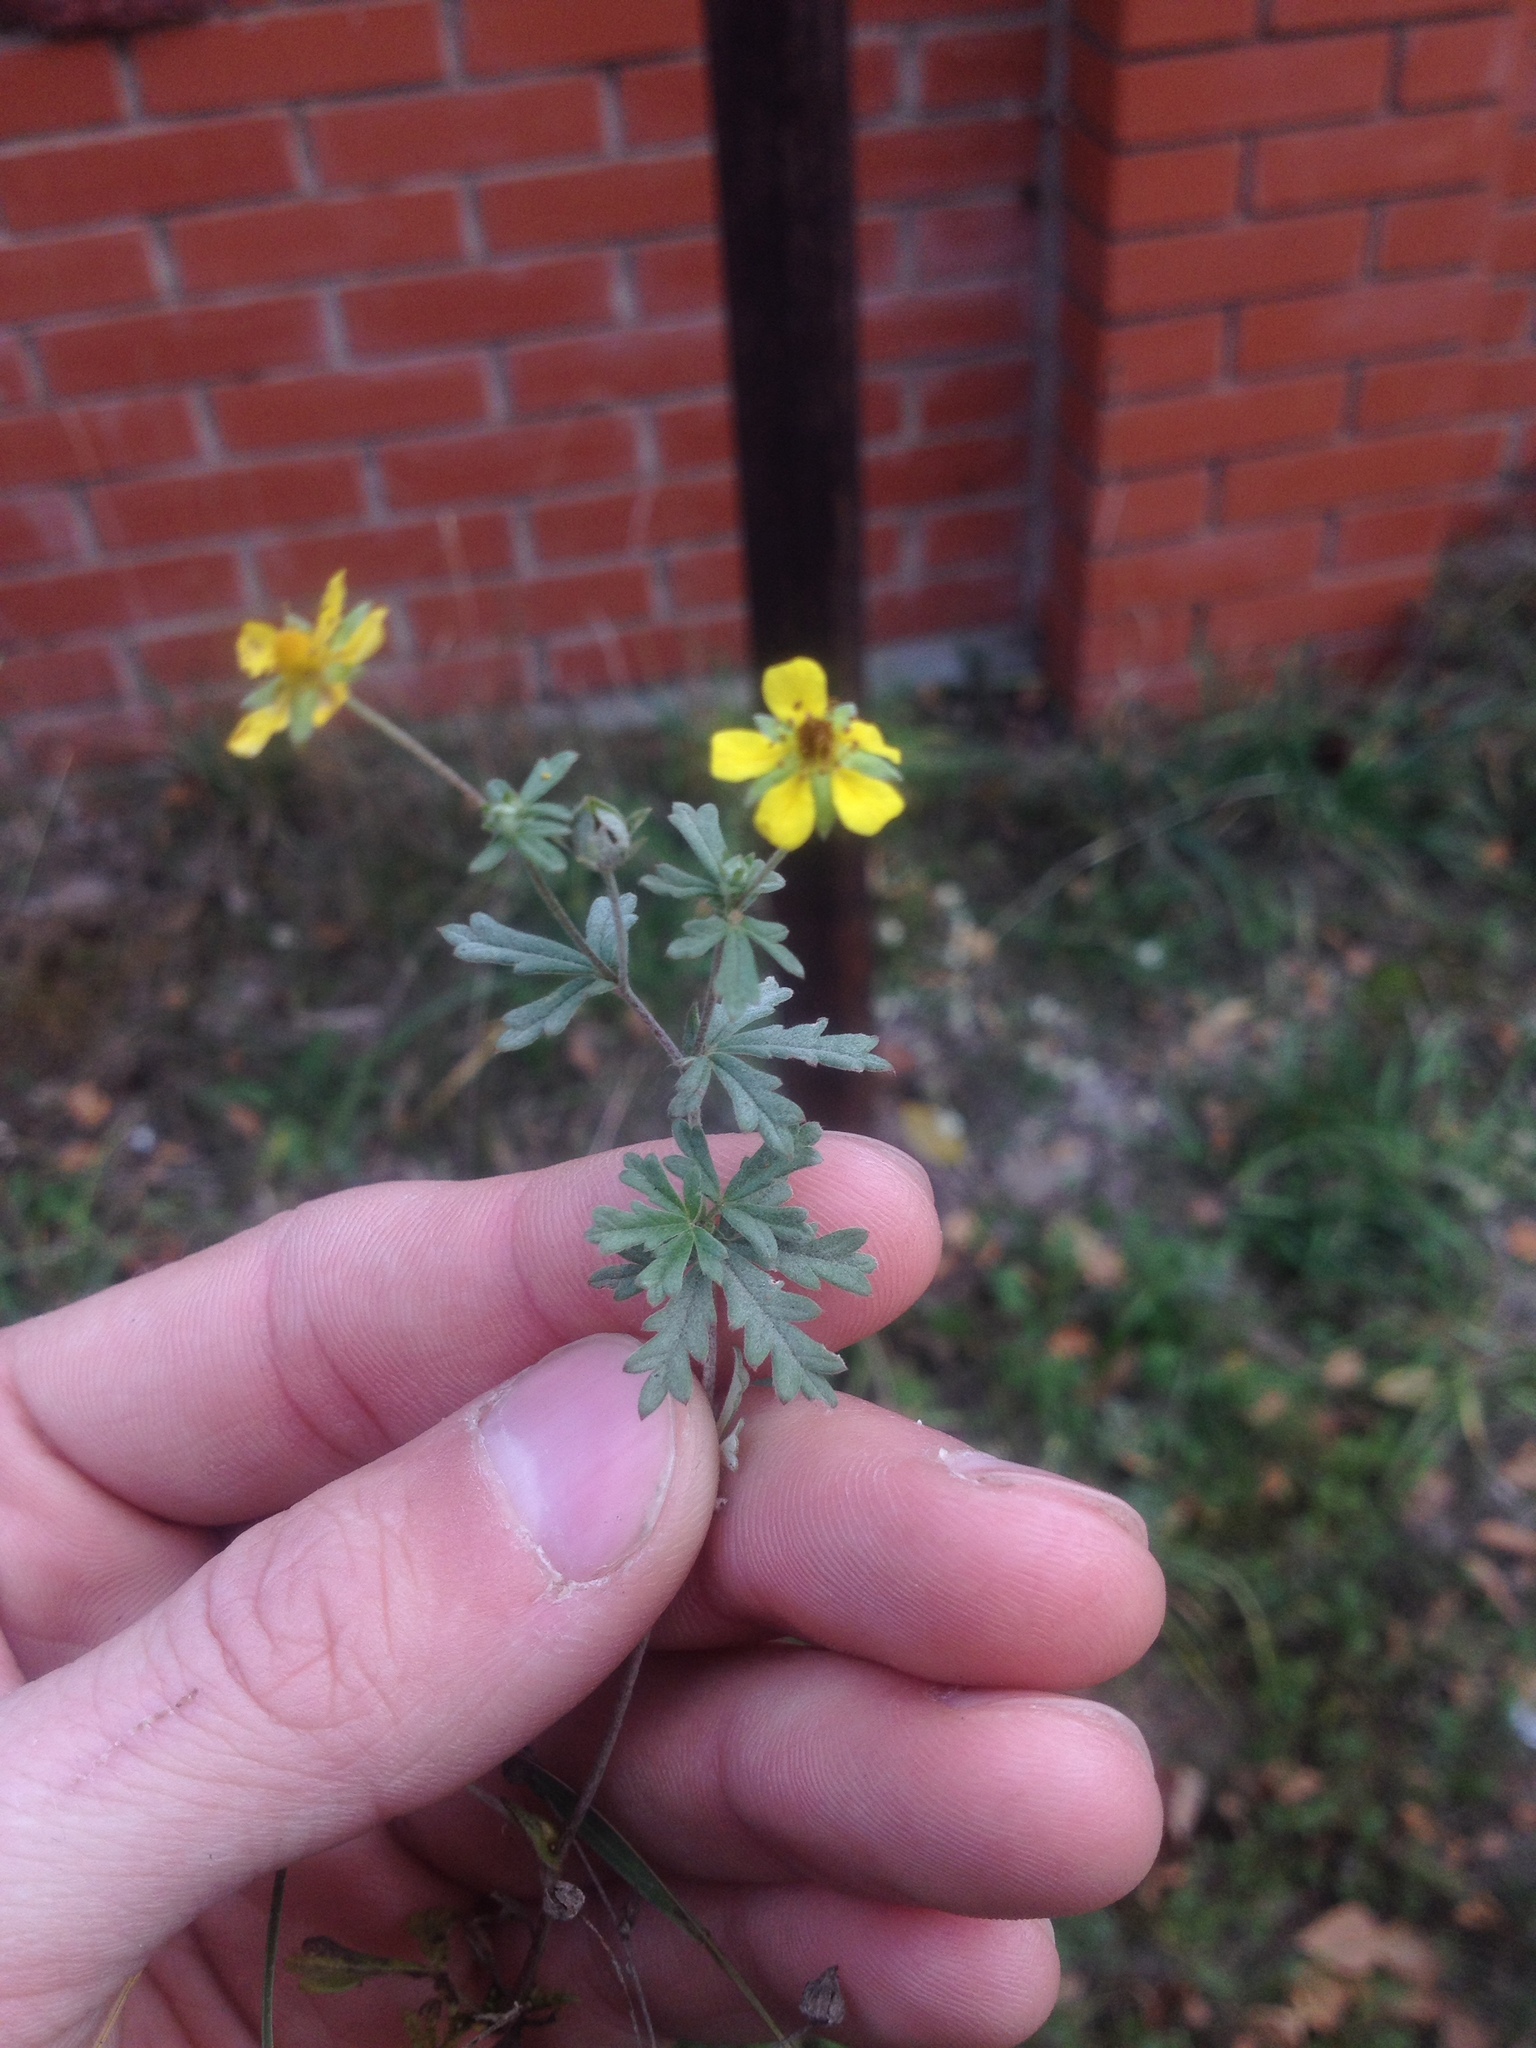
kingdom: Plantae
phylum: Tracheophyta
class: Magnoliopsida
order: Rosales
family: Rosaceae
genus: Potentilla
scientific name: Potentilla argentea
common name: Hoary cinquefoil
